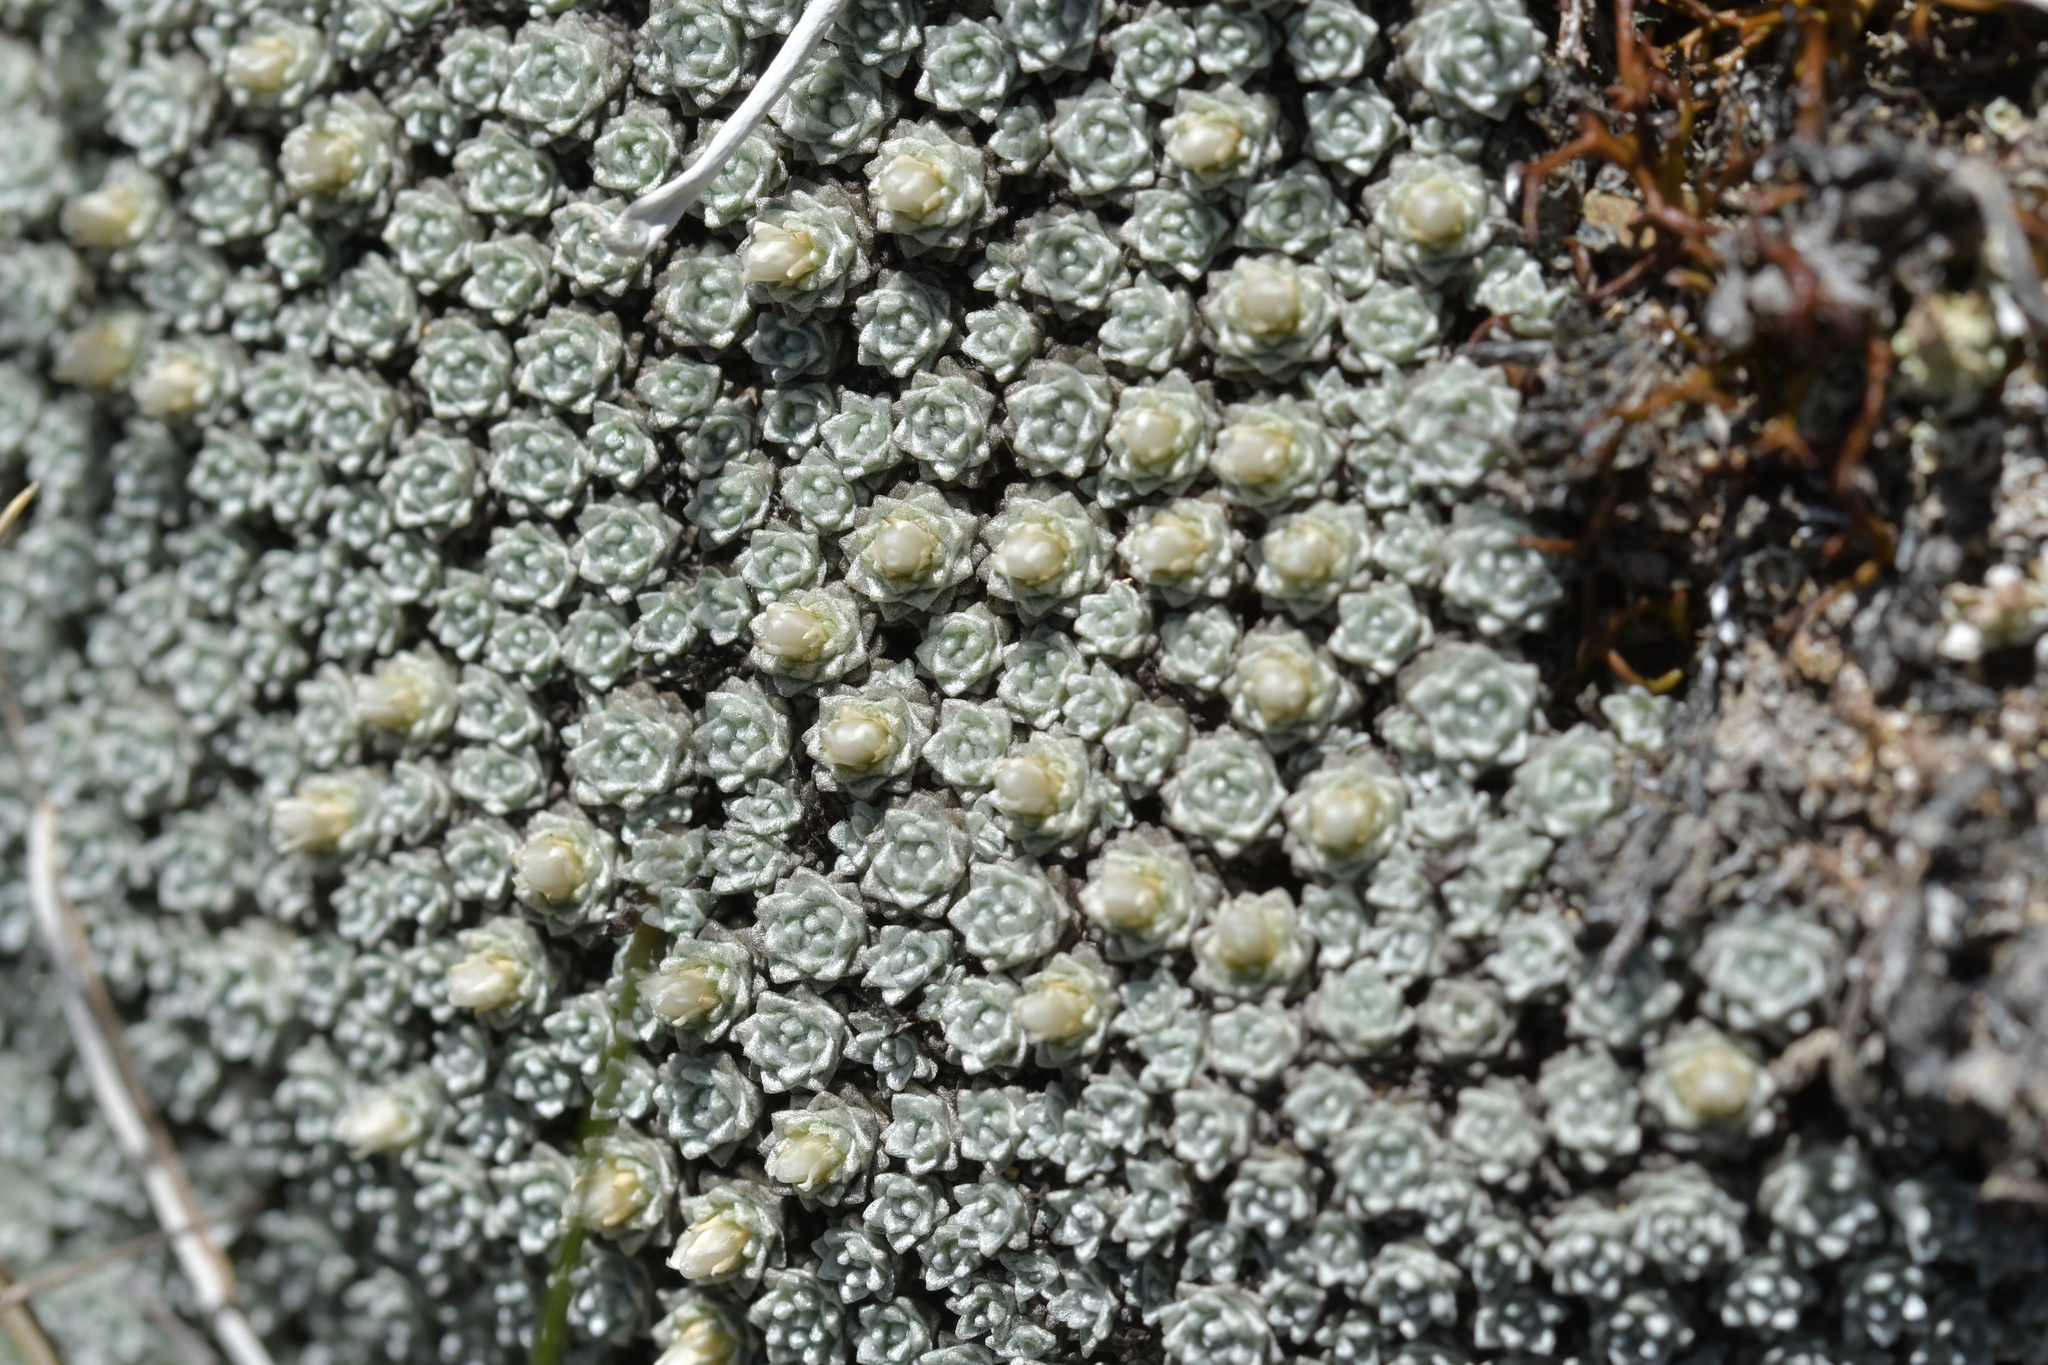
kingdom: Plantae
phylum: Tracheophyta
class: Magnoliopsida
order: Asterales
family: Asteraceae
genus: Raoulia
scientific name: Raoulia bryoides
